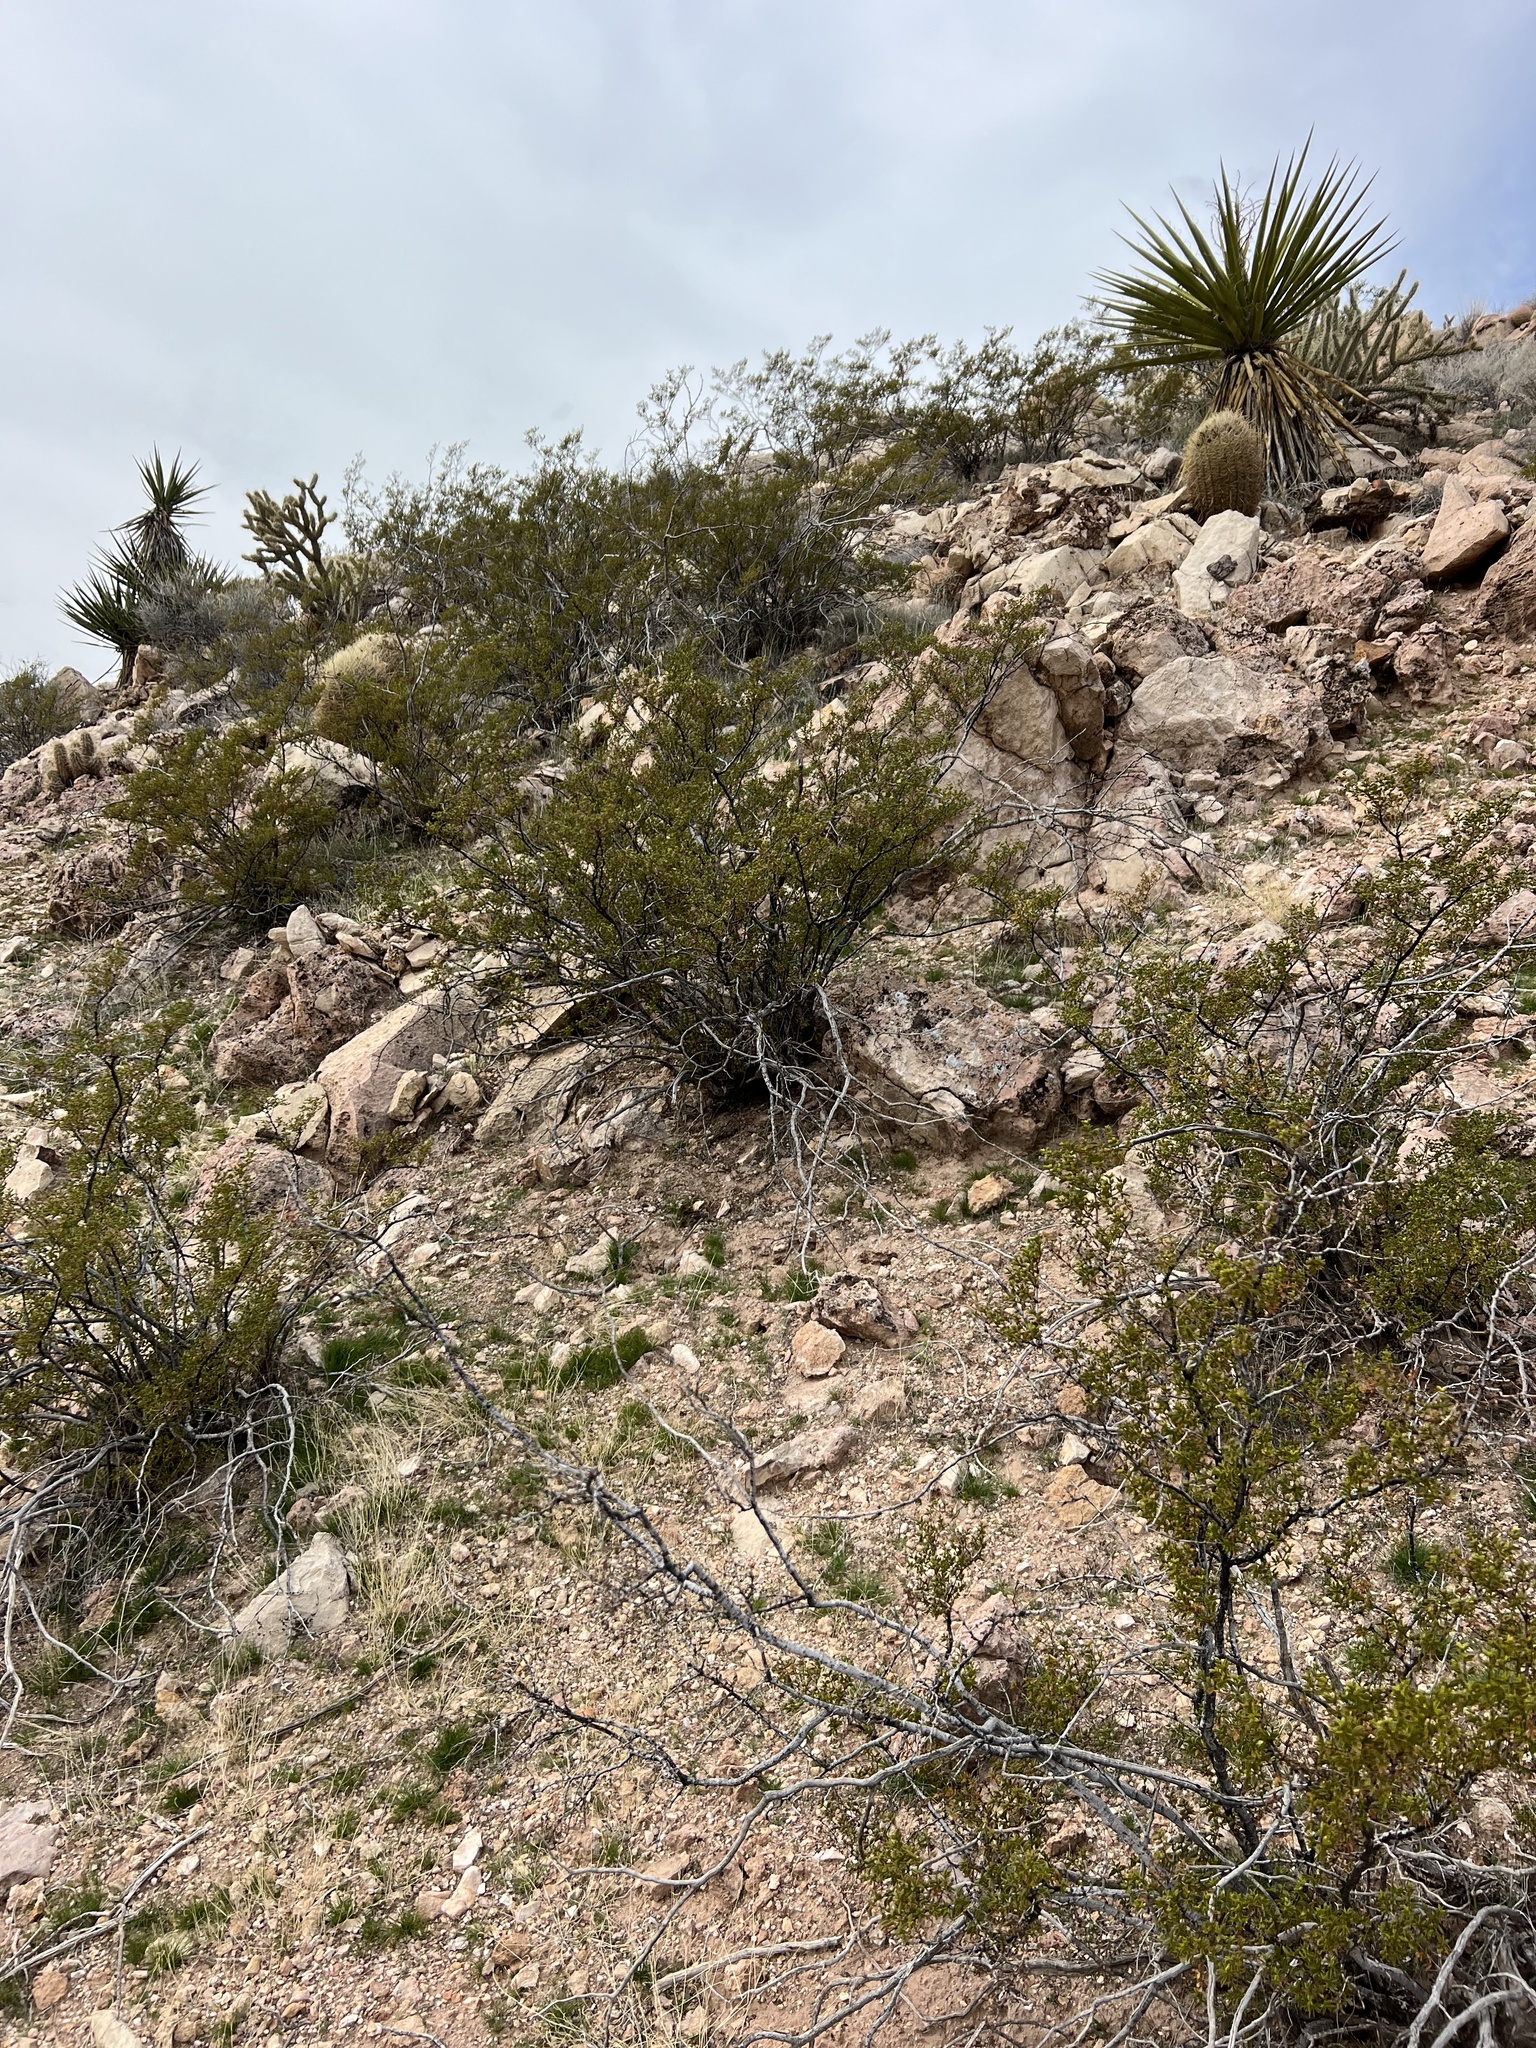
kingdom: Plantae
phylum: Tracheophyta
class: Magnoliopsida
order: Zygophyllales
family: Zygophyllaceae
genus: Larrea
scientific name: Larrea tridentata
